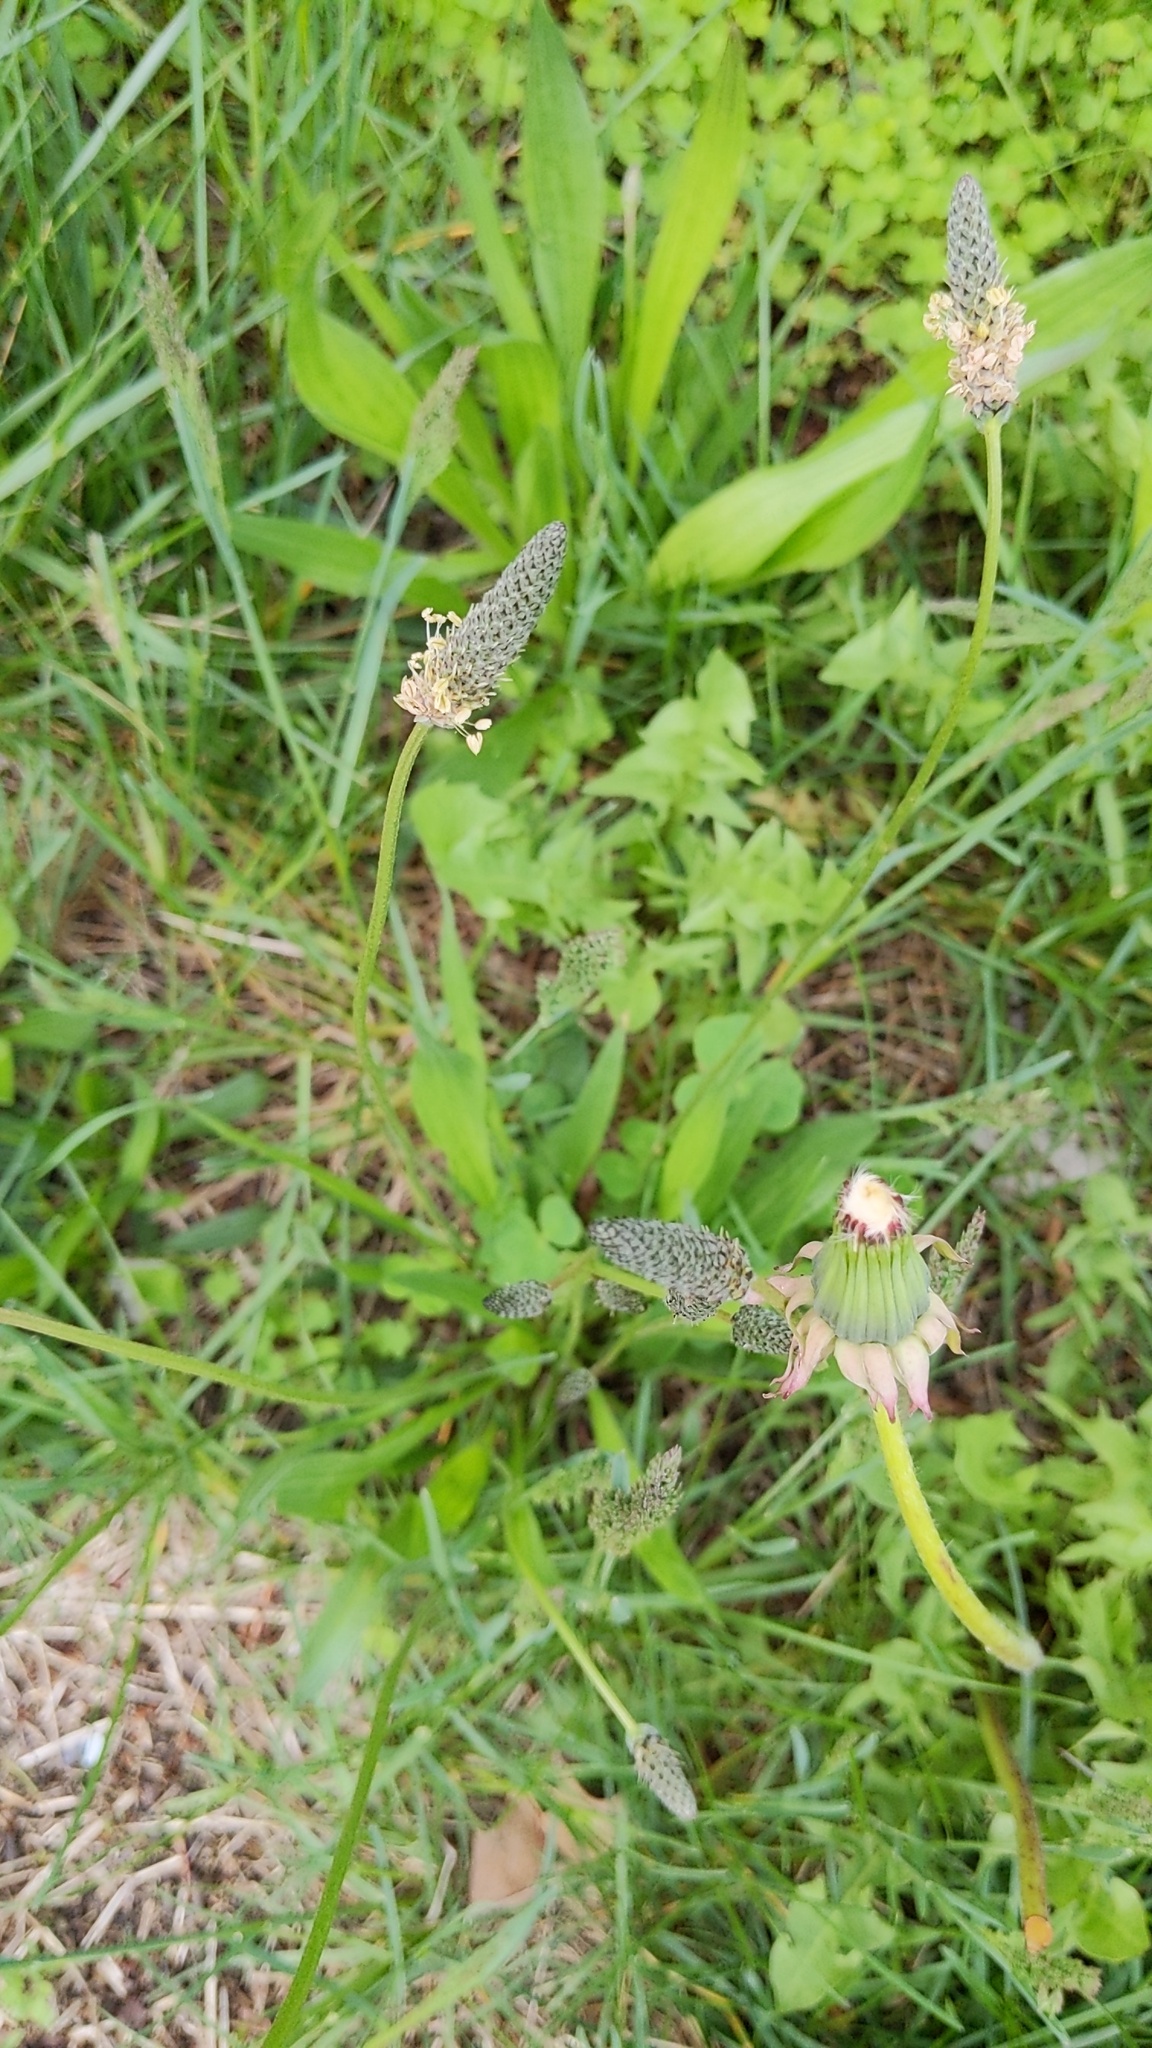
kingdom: Plantae
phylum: Tracheophyta
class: Magnoliopsida
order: Lamiales
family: Plantaginaceae
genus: Plantago
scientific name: Plantago lanceolata
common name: Ribwort plantain
